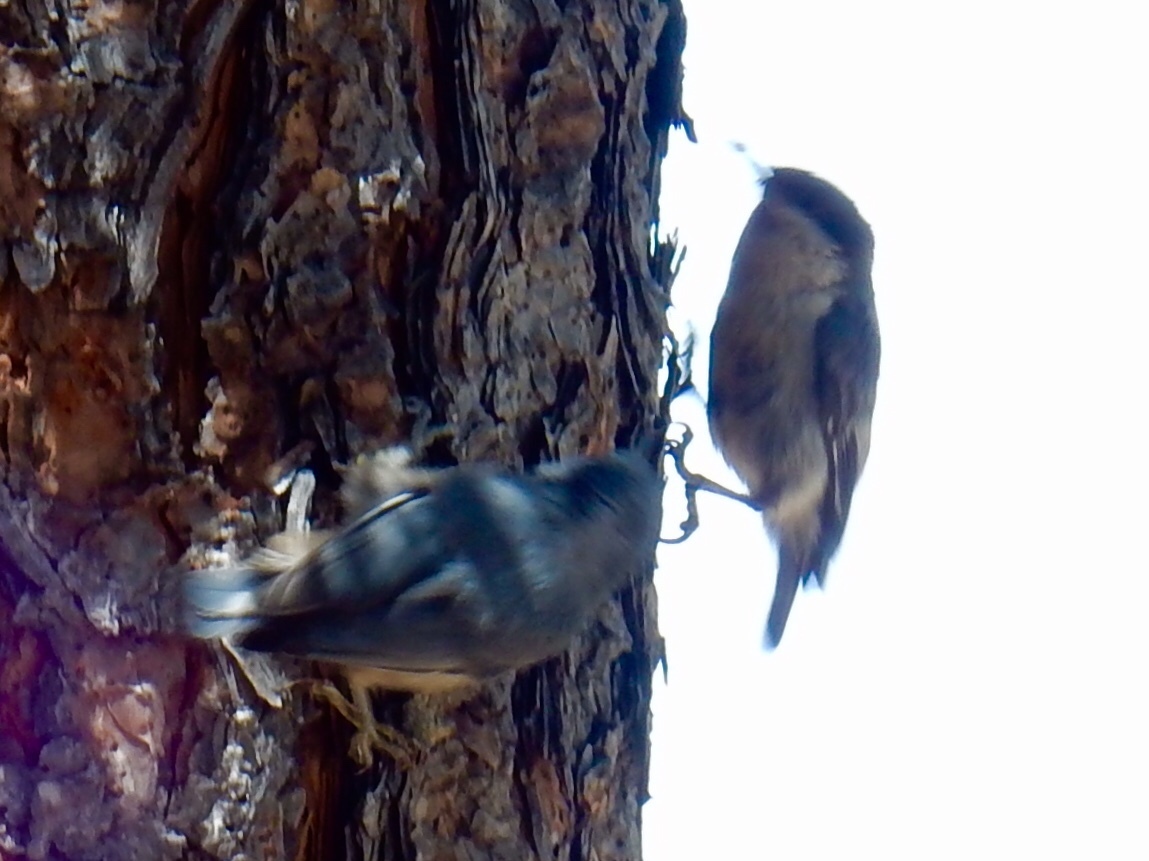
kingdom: Animalia
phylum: Chordata
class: Aves
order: Passeriformes
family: Sittidae
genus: Sitta
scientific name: Sitta pygmaea
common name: Pygmy nuthatch
